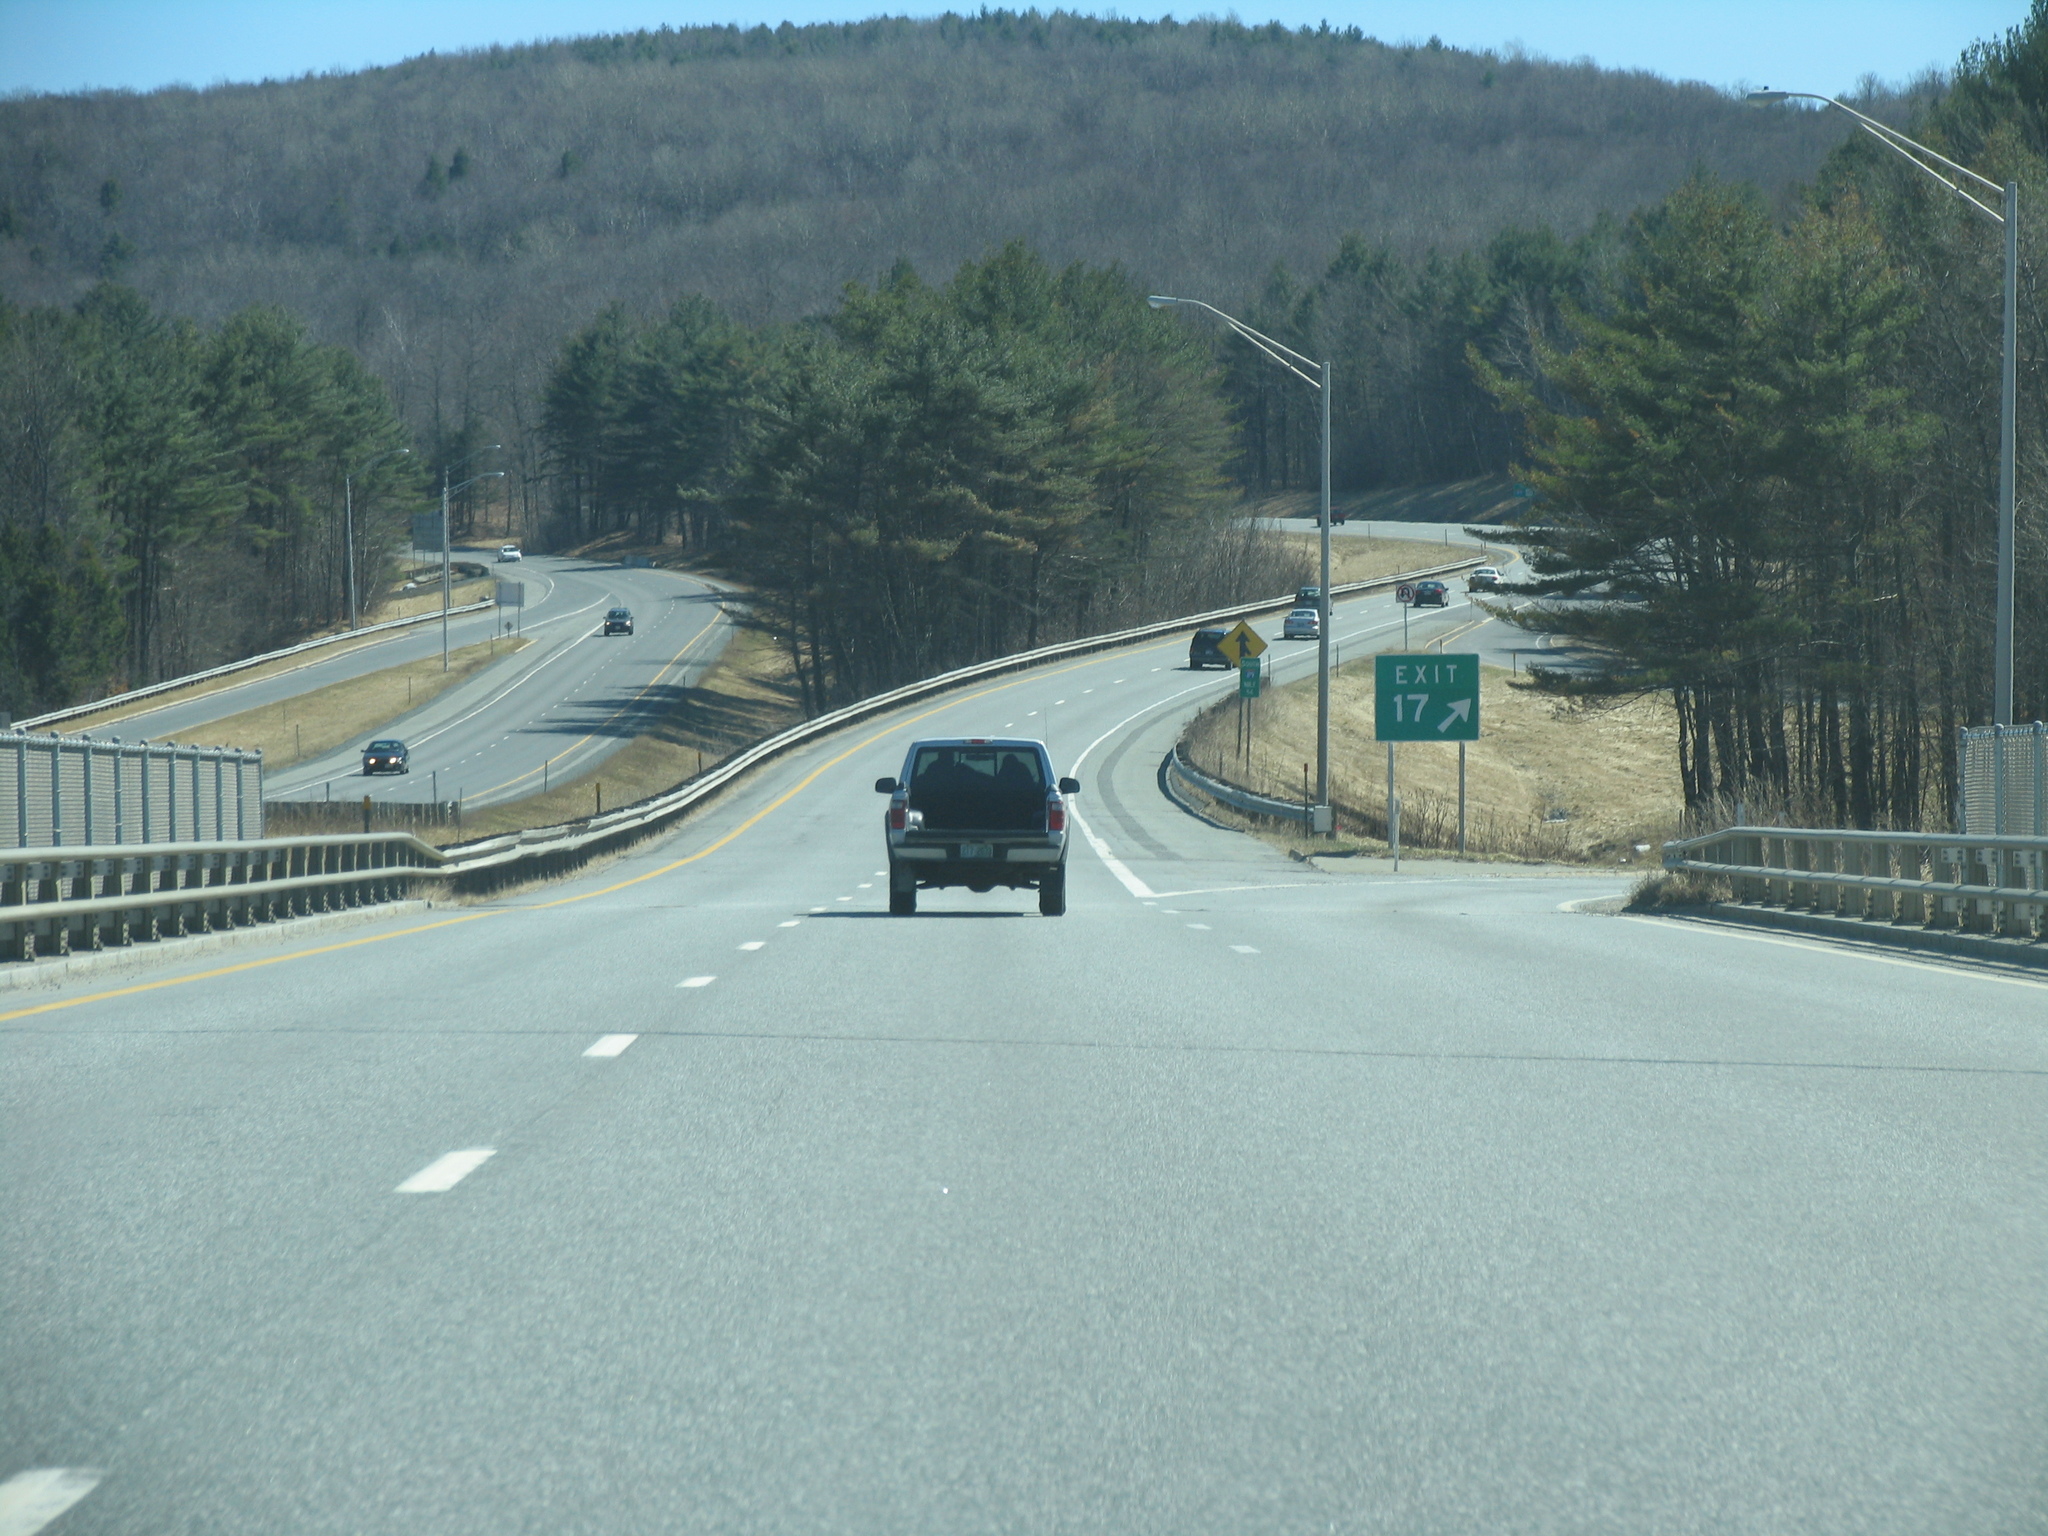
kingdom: Plantae
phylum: Tracheophyta
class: Pinopsida
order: Pinales
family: Pinaceae
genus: Pinus
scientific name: Pinus strobus
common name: Weymouth pine
